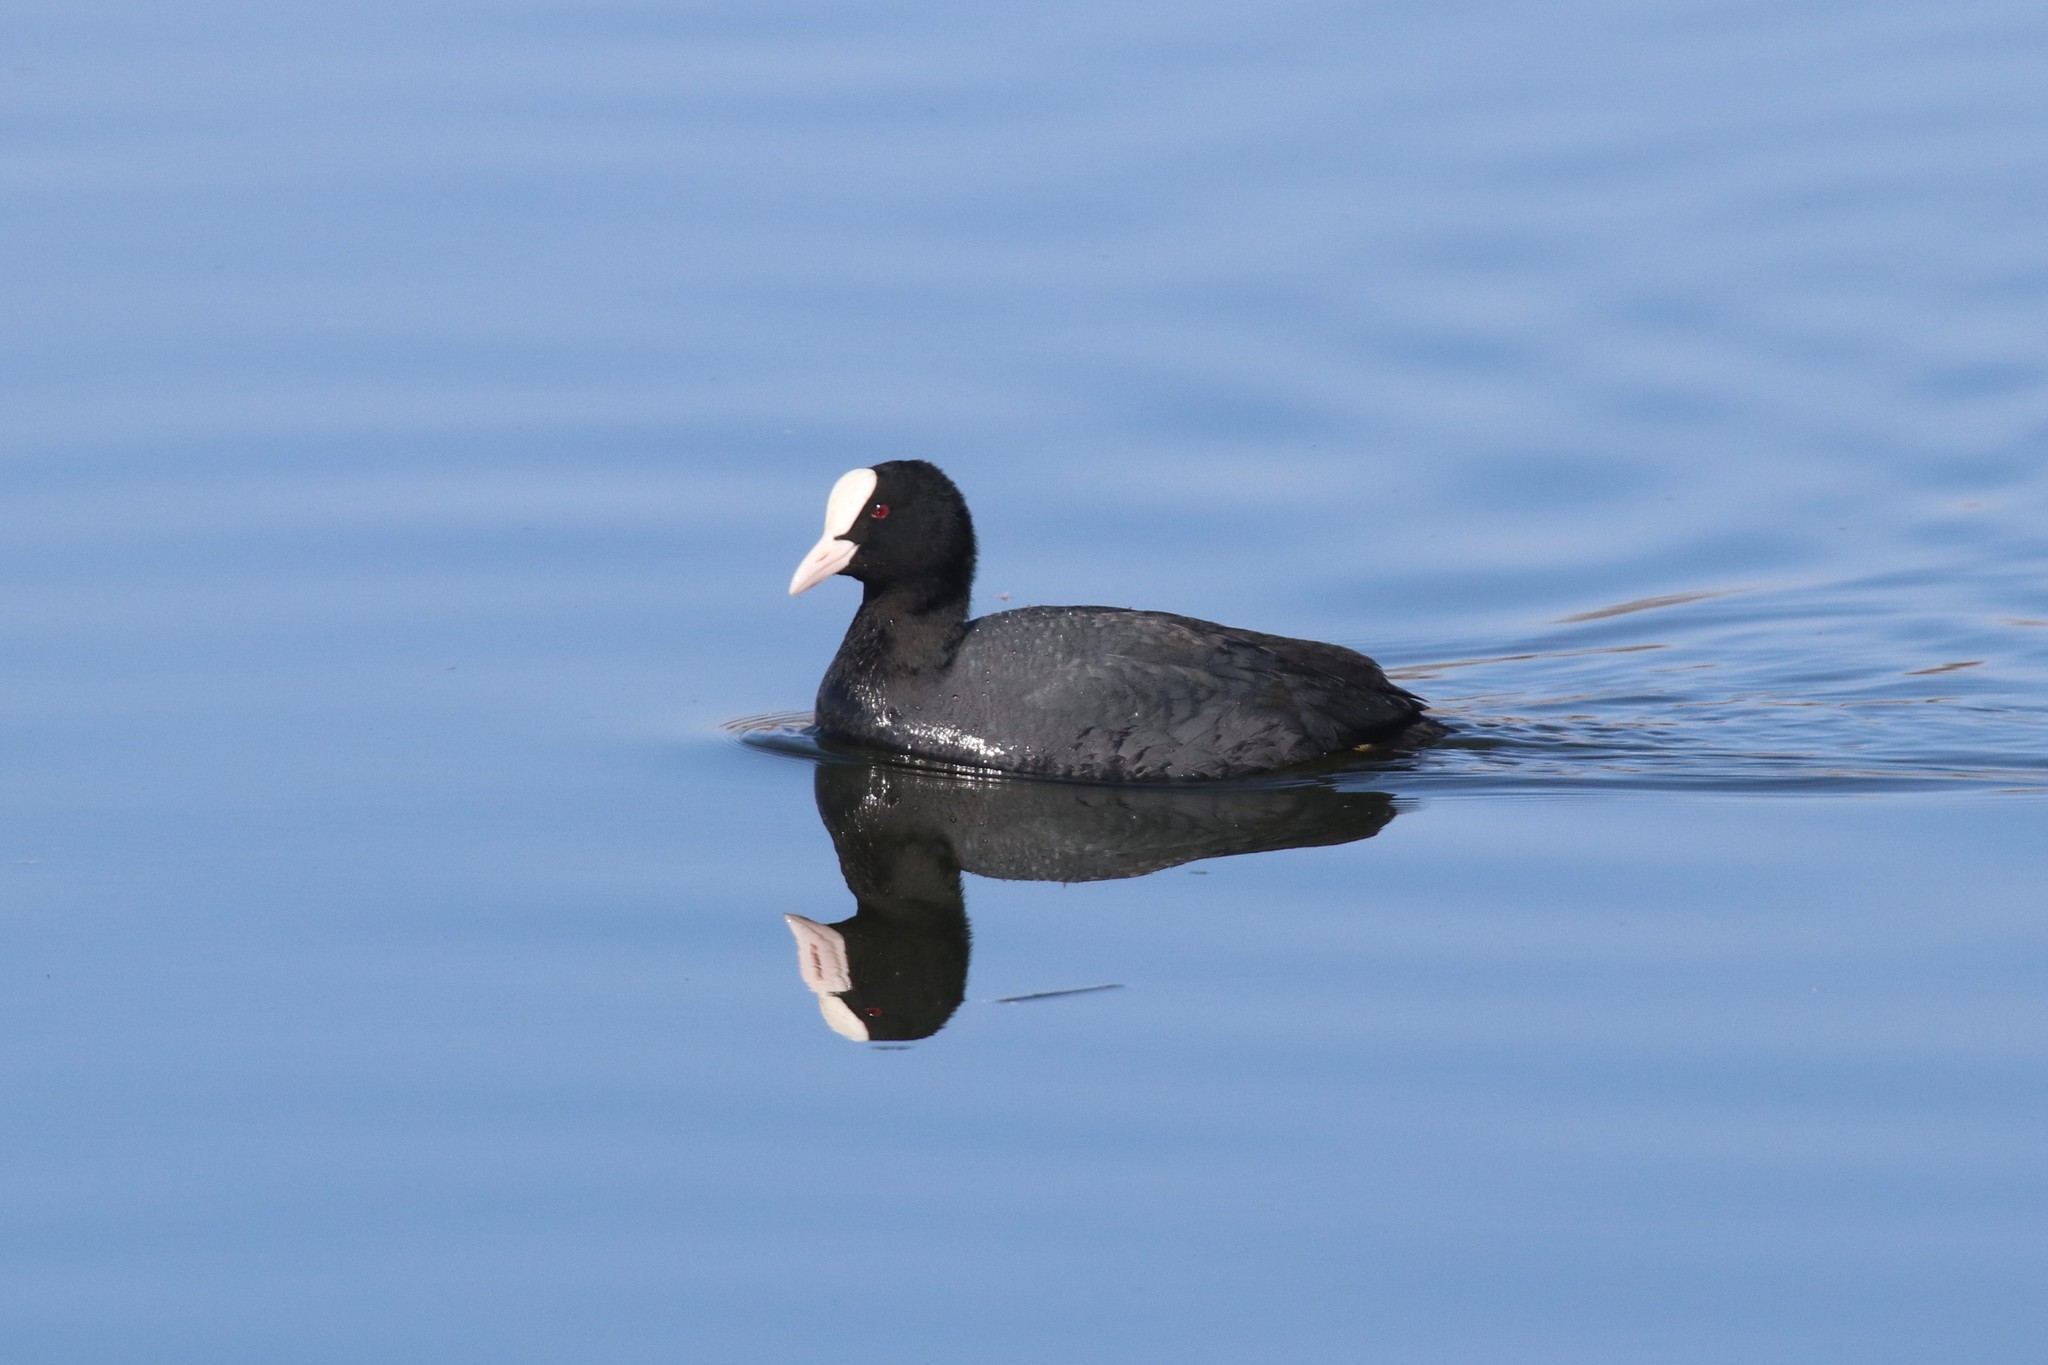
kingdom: Animalia
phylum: Chordata
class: Aves
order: Gruiformes
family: Rallidae
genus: Fulica
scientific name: Fulica atra
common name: Eurasian coot
